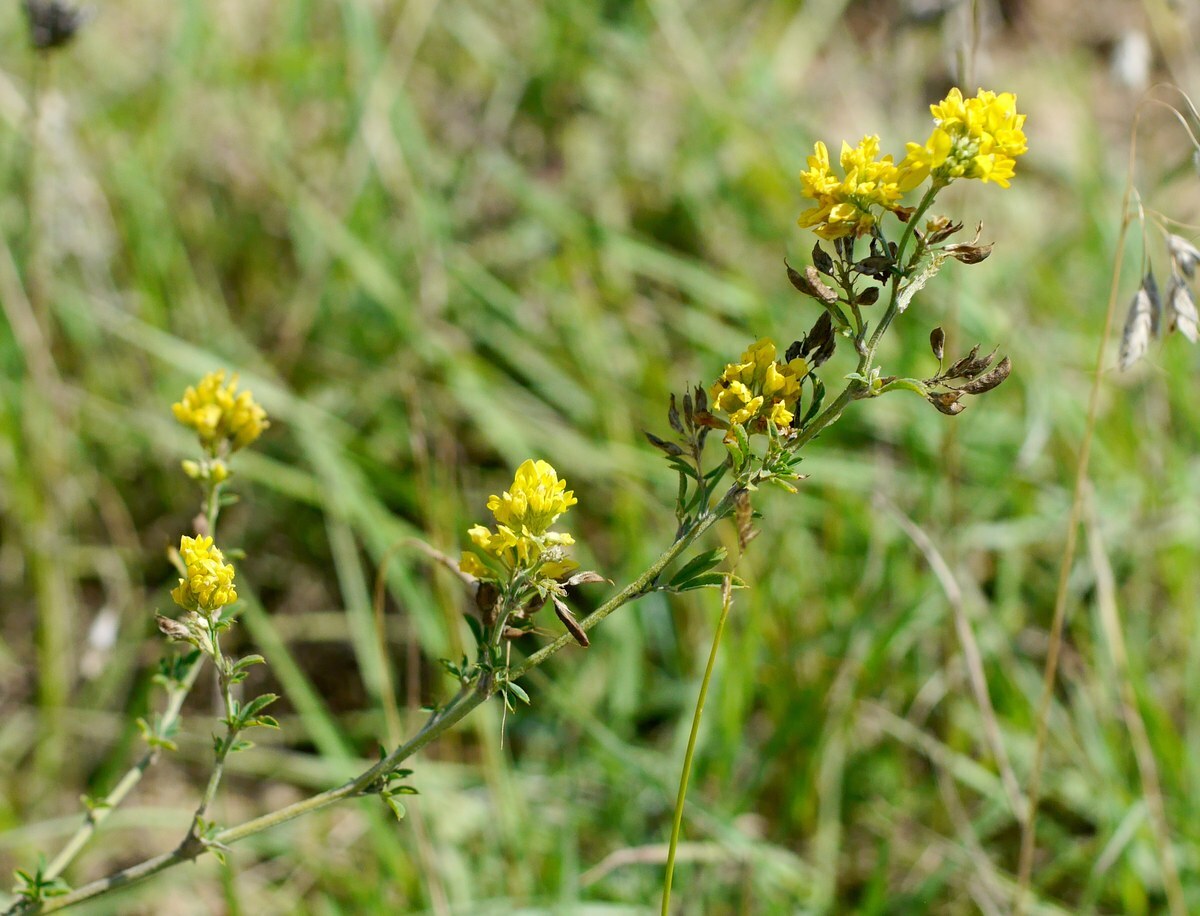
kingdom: Plantae
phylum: Tracheophyta
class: Magnoliopsida
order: Fabales
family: Fabaceae
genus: Medicago
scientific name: Medicago falcata
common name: Sickle medick
